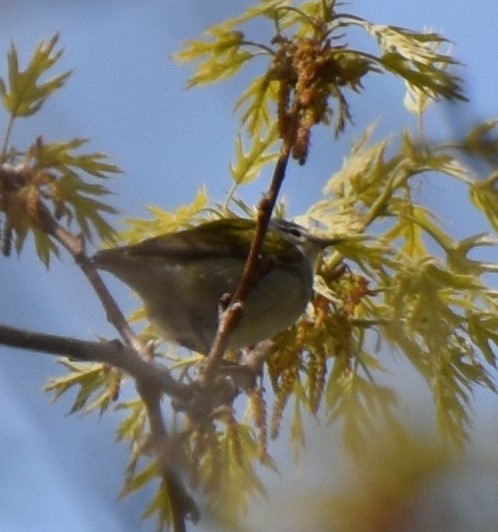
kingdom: Animalia
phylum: Chordata
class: Aves
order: Passeriformes
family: Parulidae
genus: Leiothlypis
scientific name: Leiothlypis peregrina
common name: Tennessee warbler
